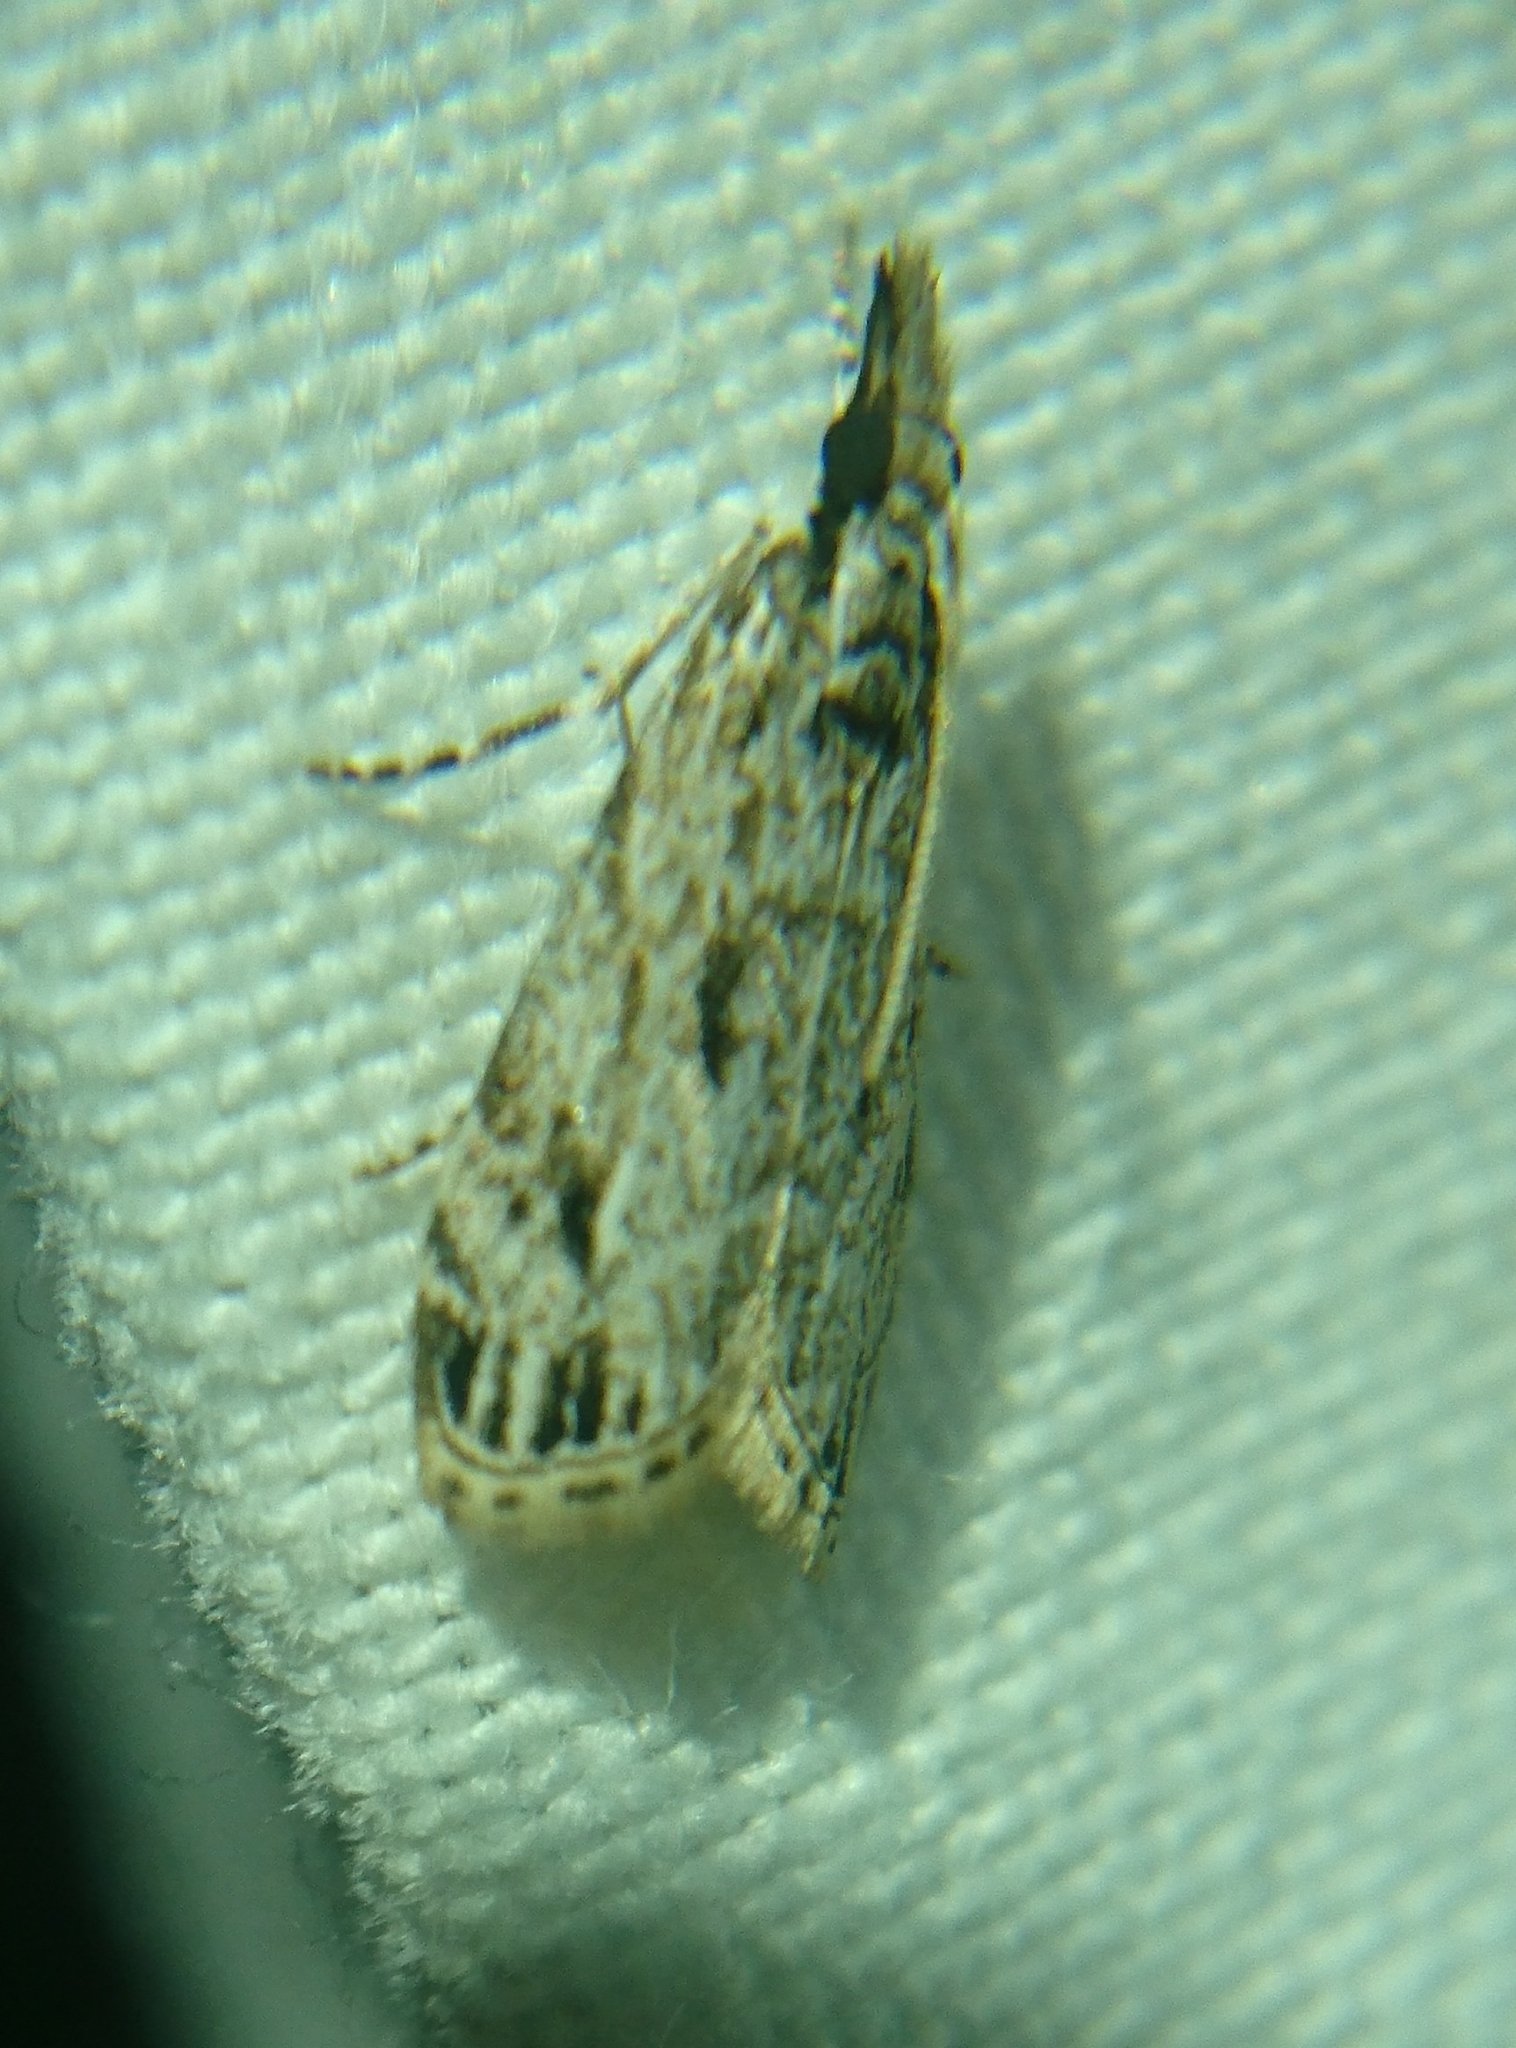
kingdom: Animalia
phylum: Arthropoda
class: Insecta
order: Lepidoptera
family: Crambidae
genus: Eudonia
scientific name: Eudonia strigalis
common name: Striped eudonia moth
